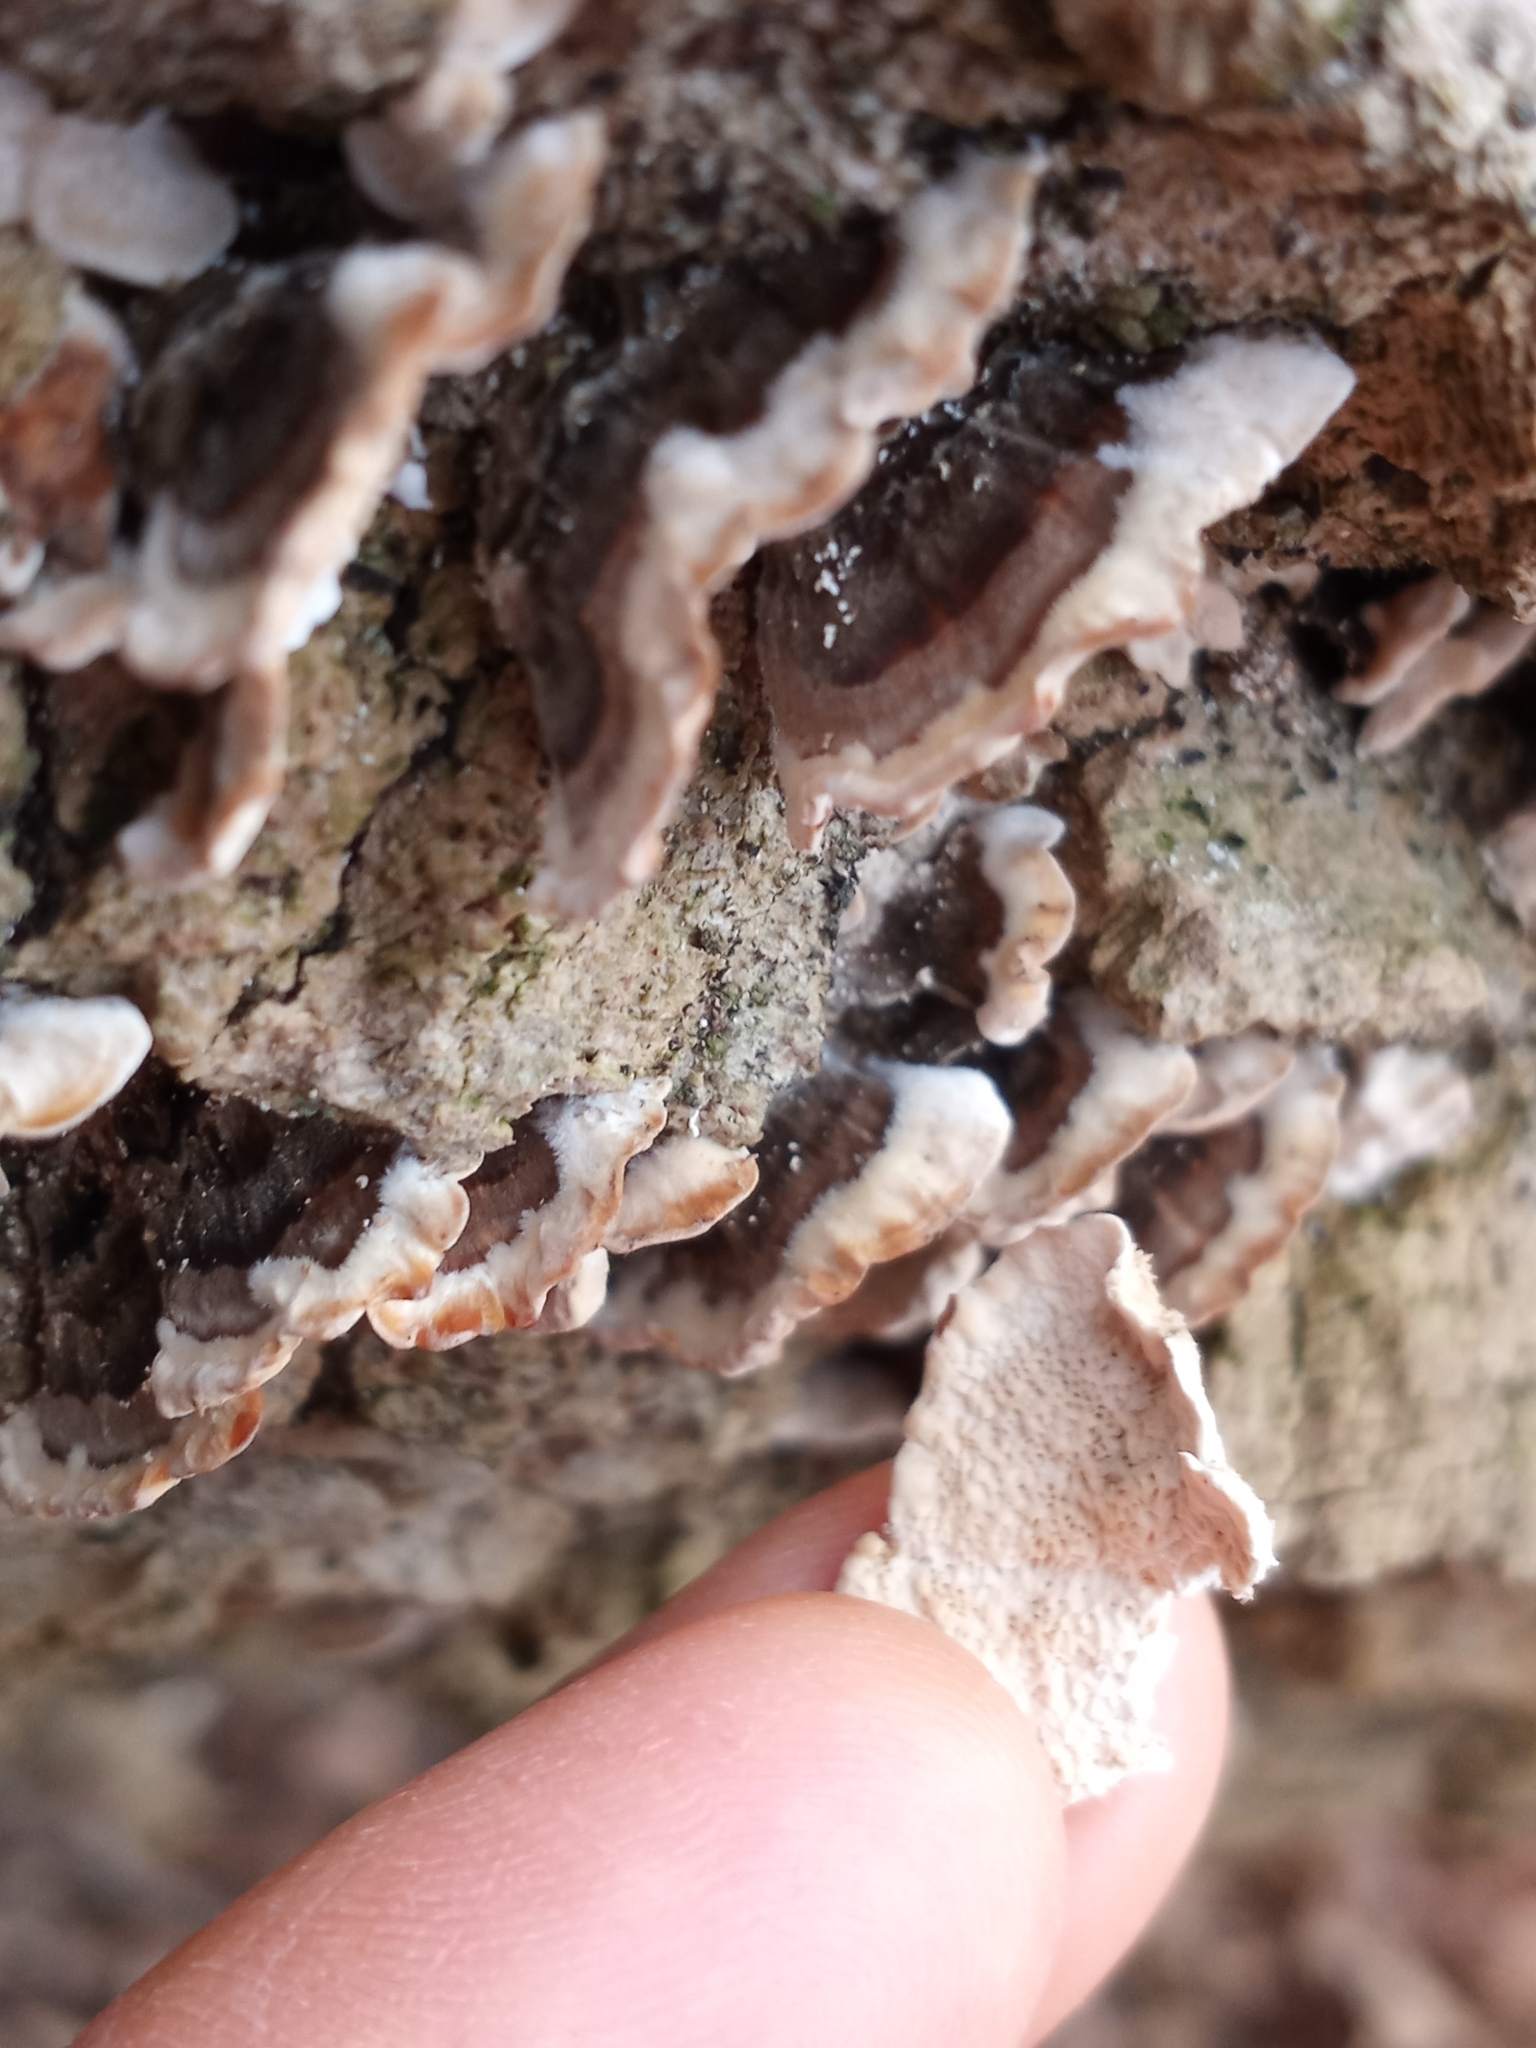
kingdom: Fungi
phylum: Basidiomycota
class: Agaricomycetes
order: Polyporales
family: Polyporaceae
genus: Trametes
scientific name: Trametes versicolor
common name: Turkeytail
